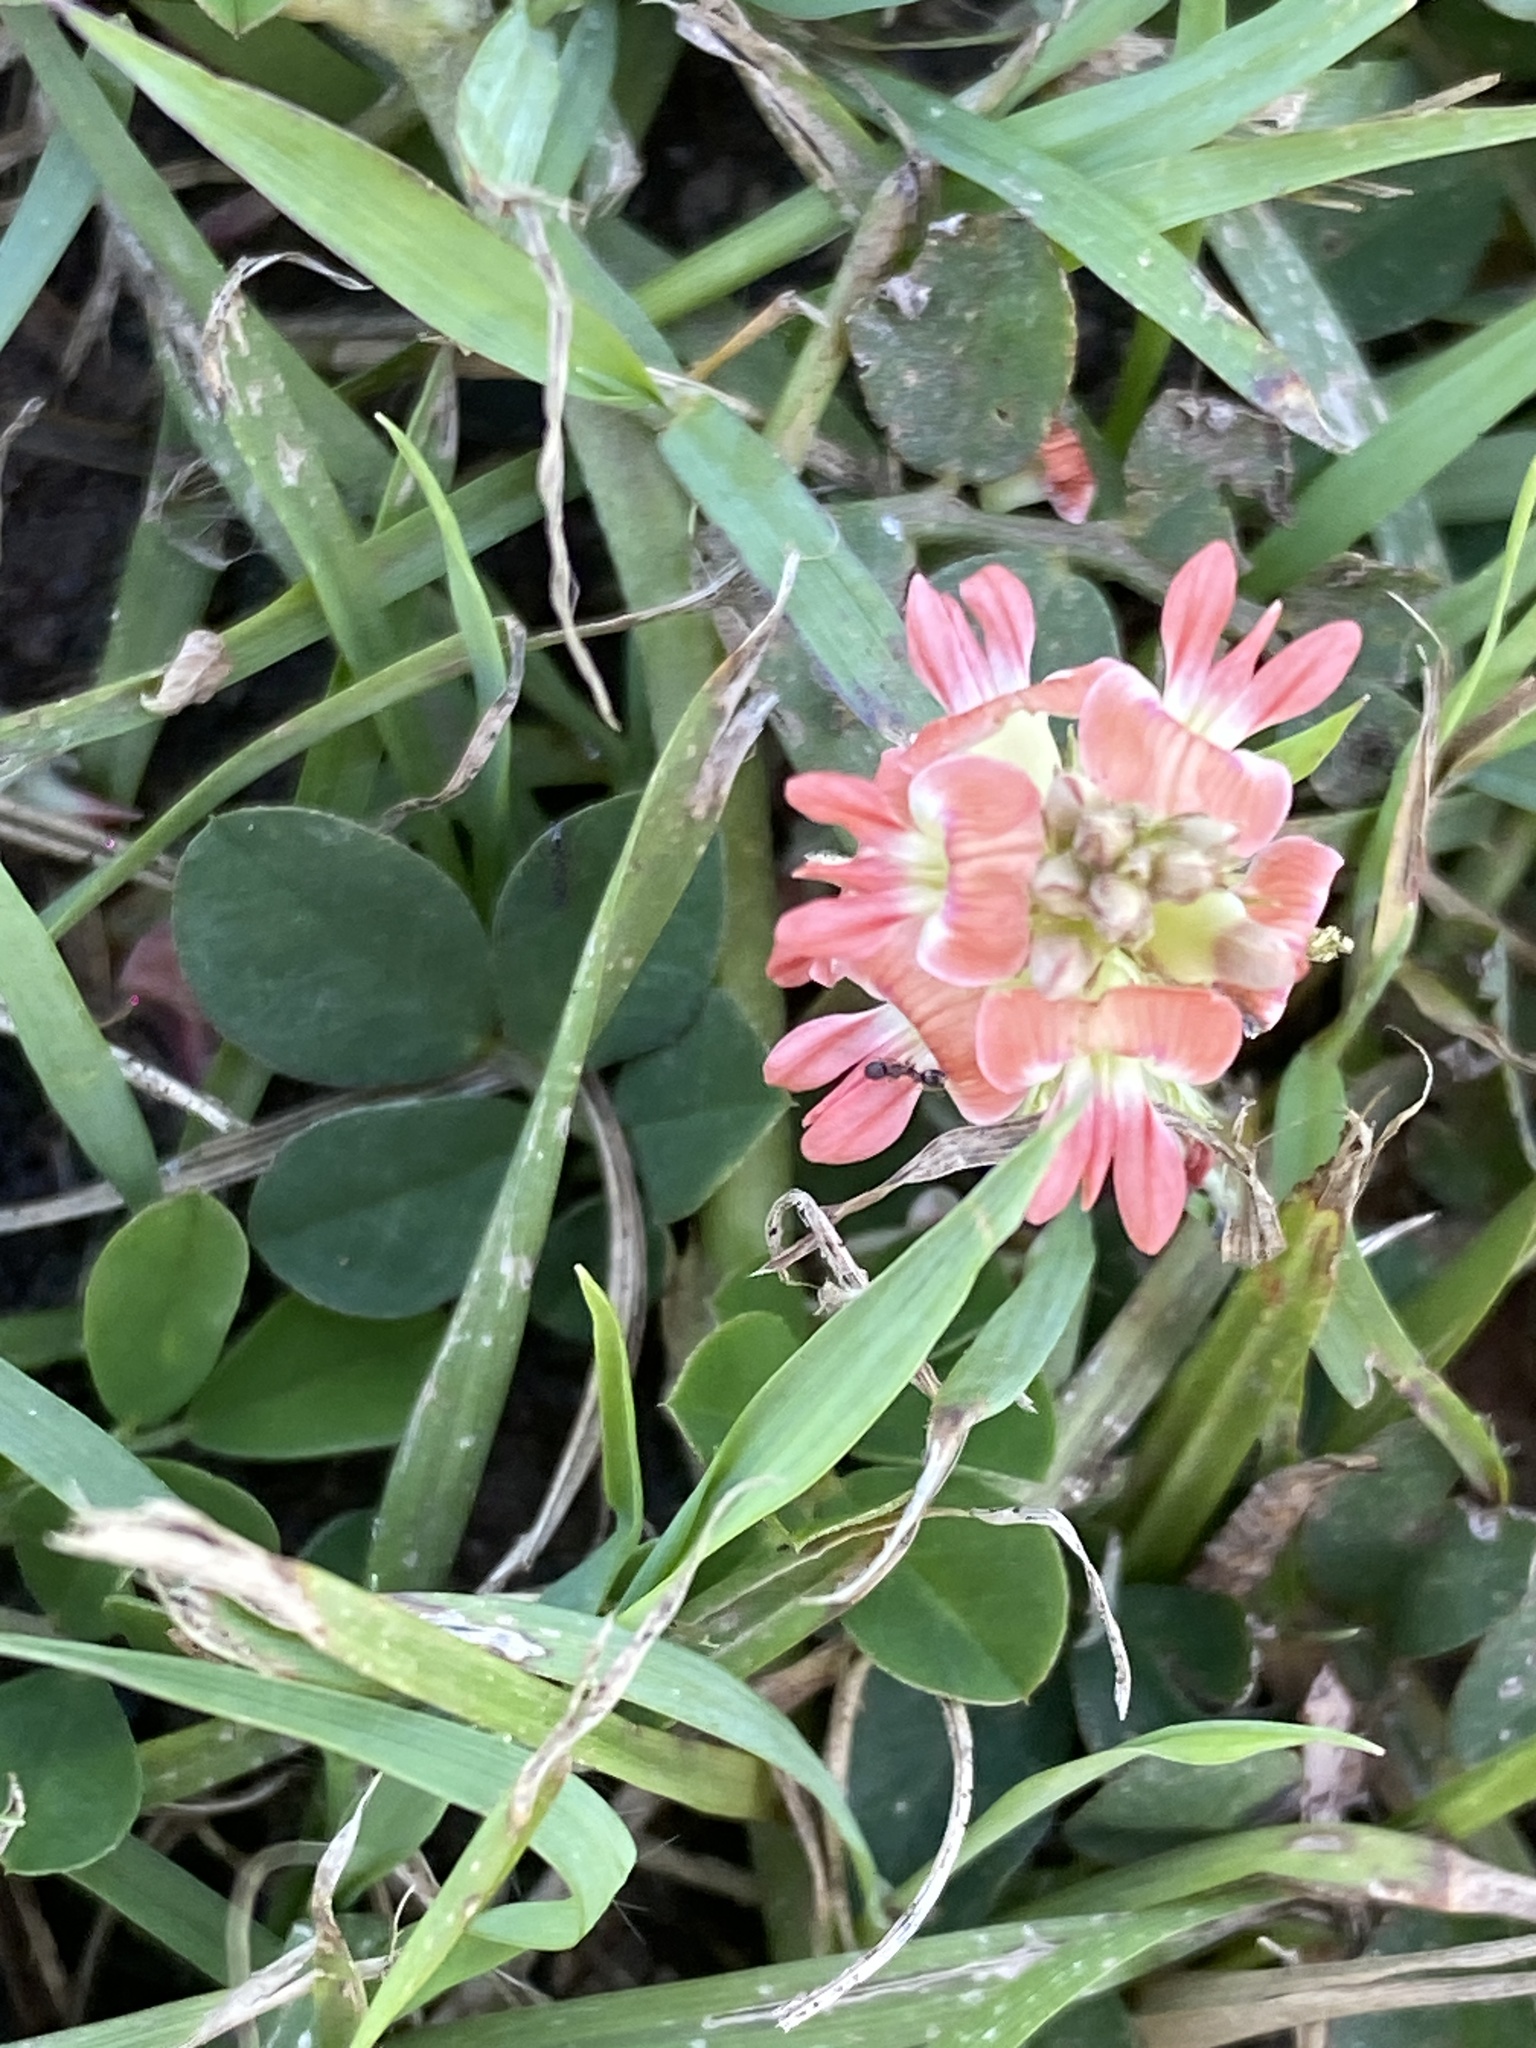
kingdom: Plantae
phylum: Tracheophyta
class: Magnoliopsida
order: Fabales
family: Fabaceae
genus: Indigofera
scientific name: Indigofera spicata
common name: Creeping indigo
